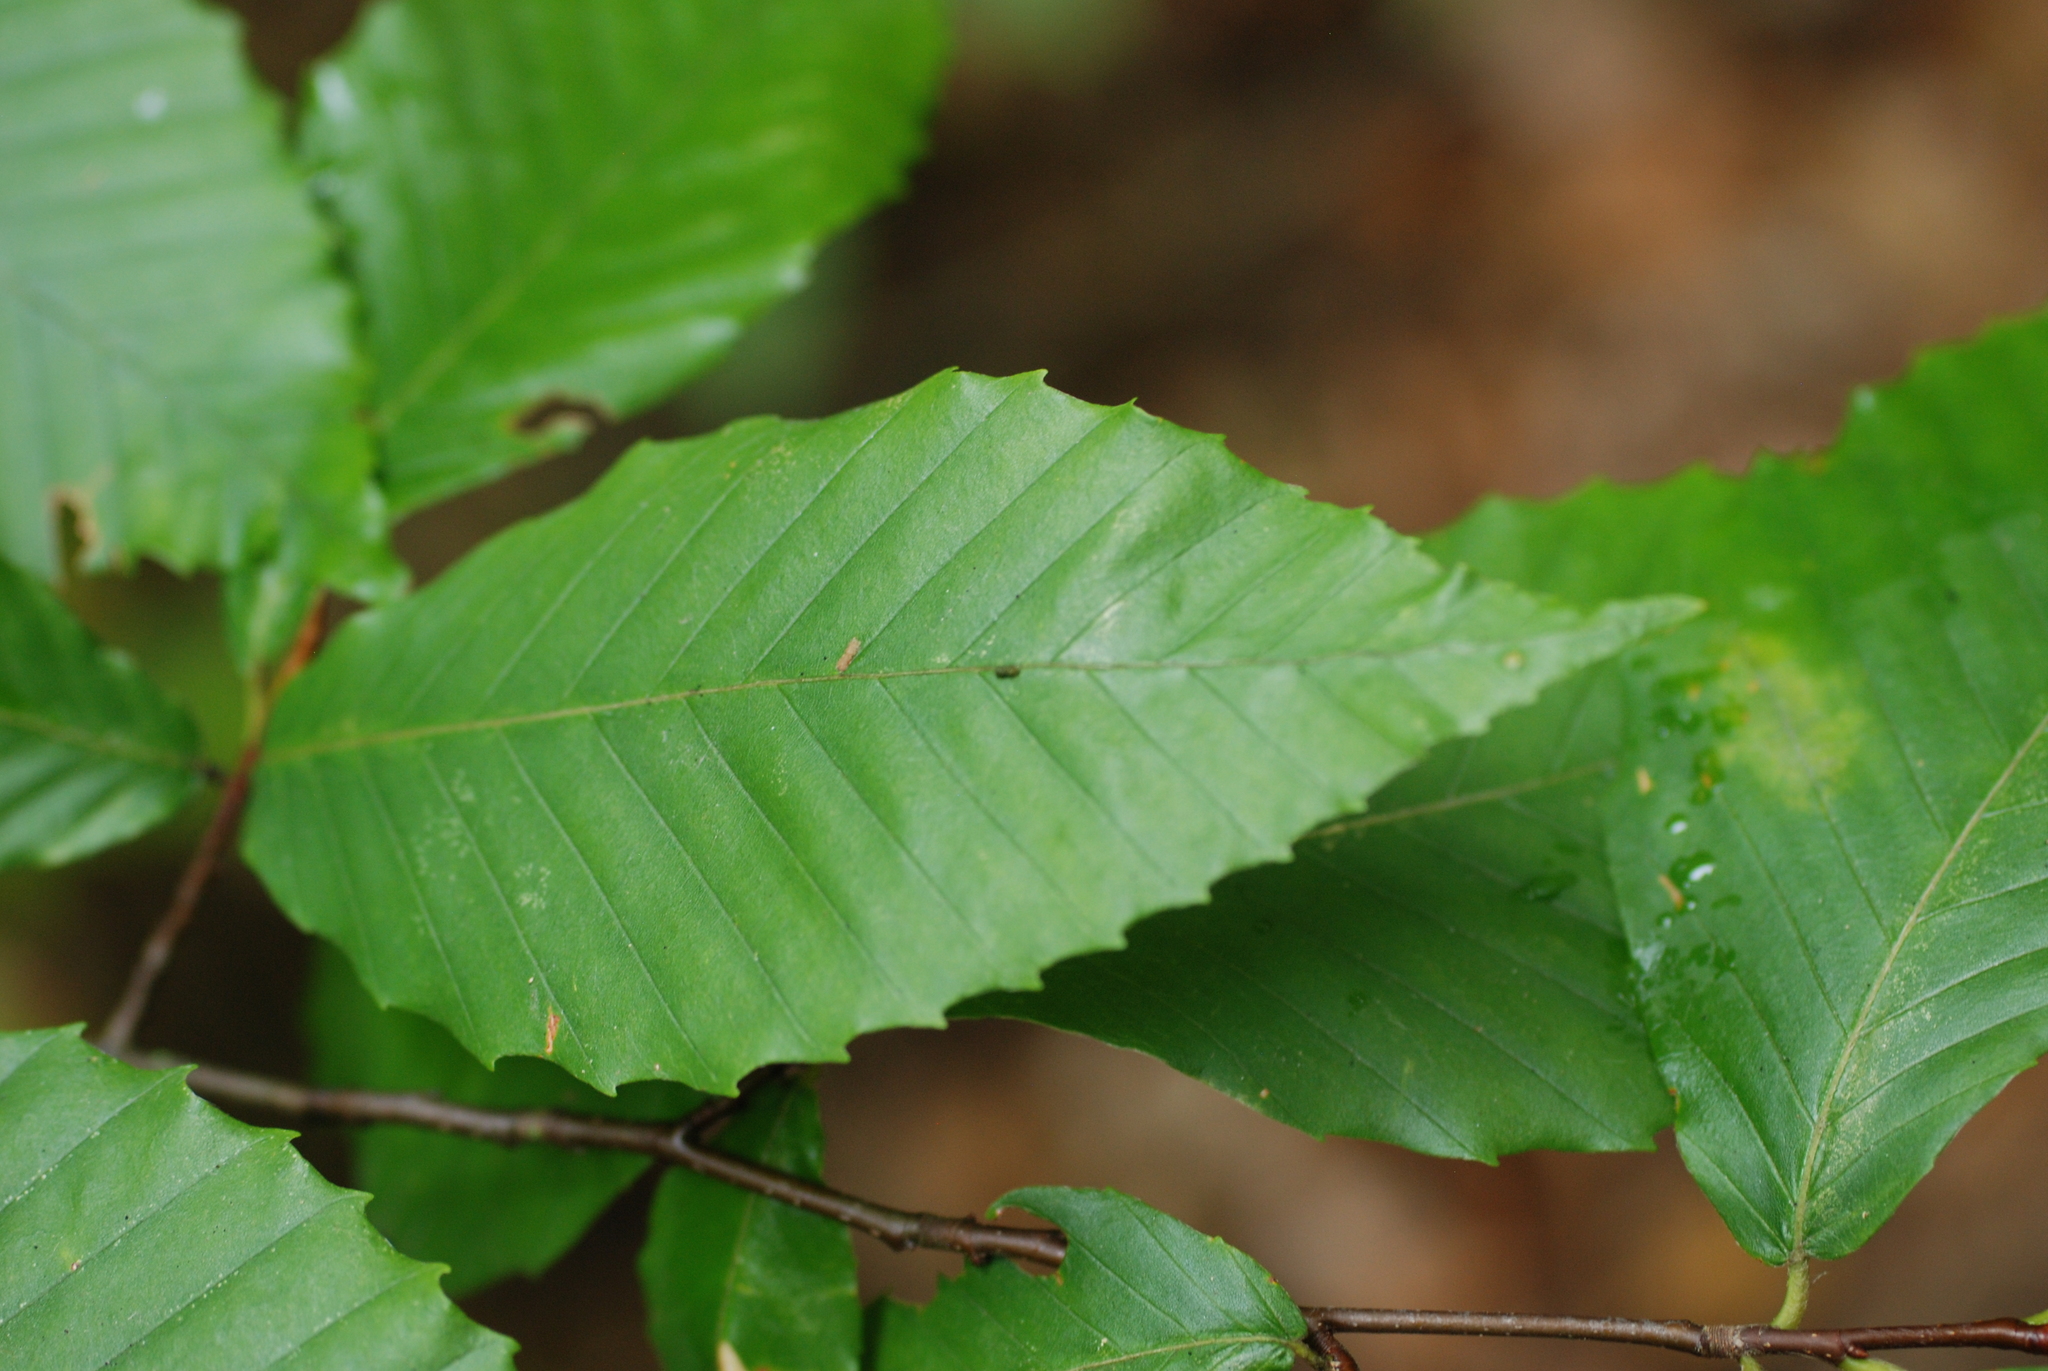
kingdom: Plantae
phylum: Tracheophyta
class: Magnoliopsida
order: Fagales
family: Fagaceae
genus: Fagus
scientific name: Fagus grandifolia
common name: American beech
